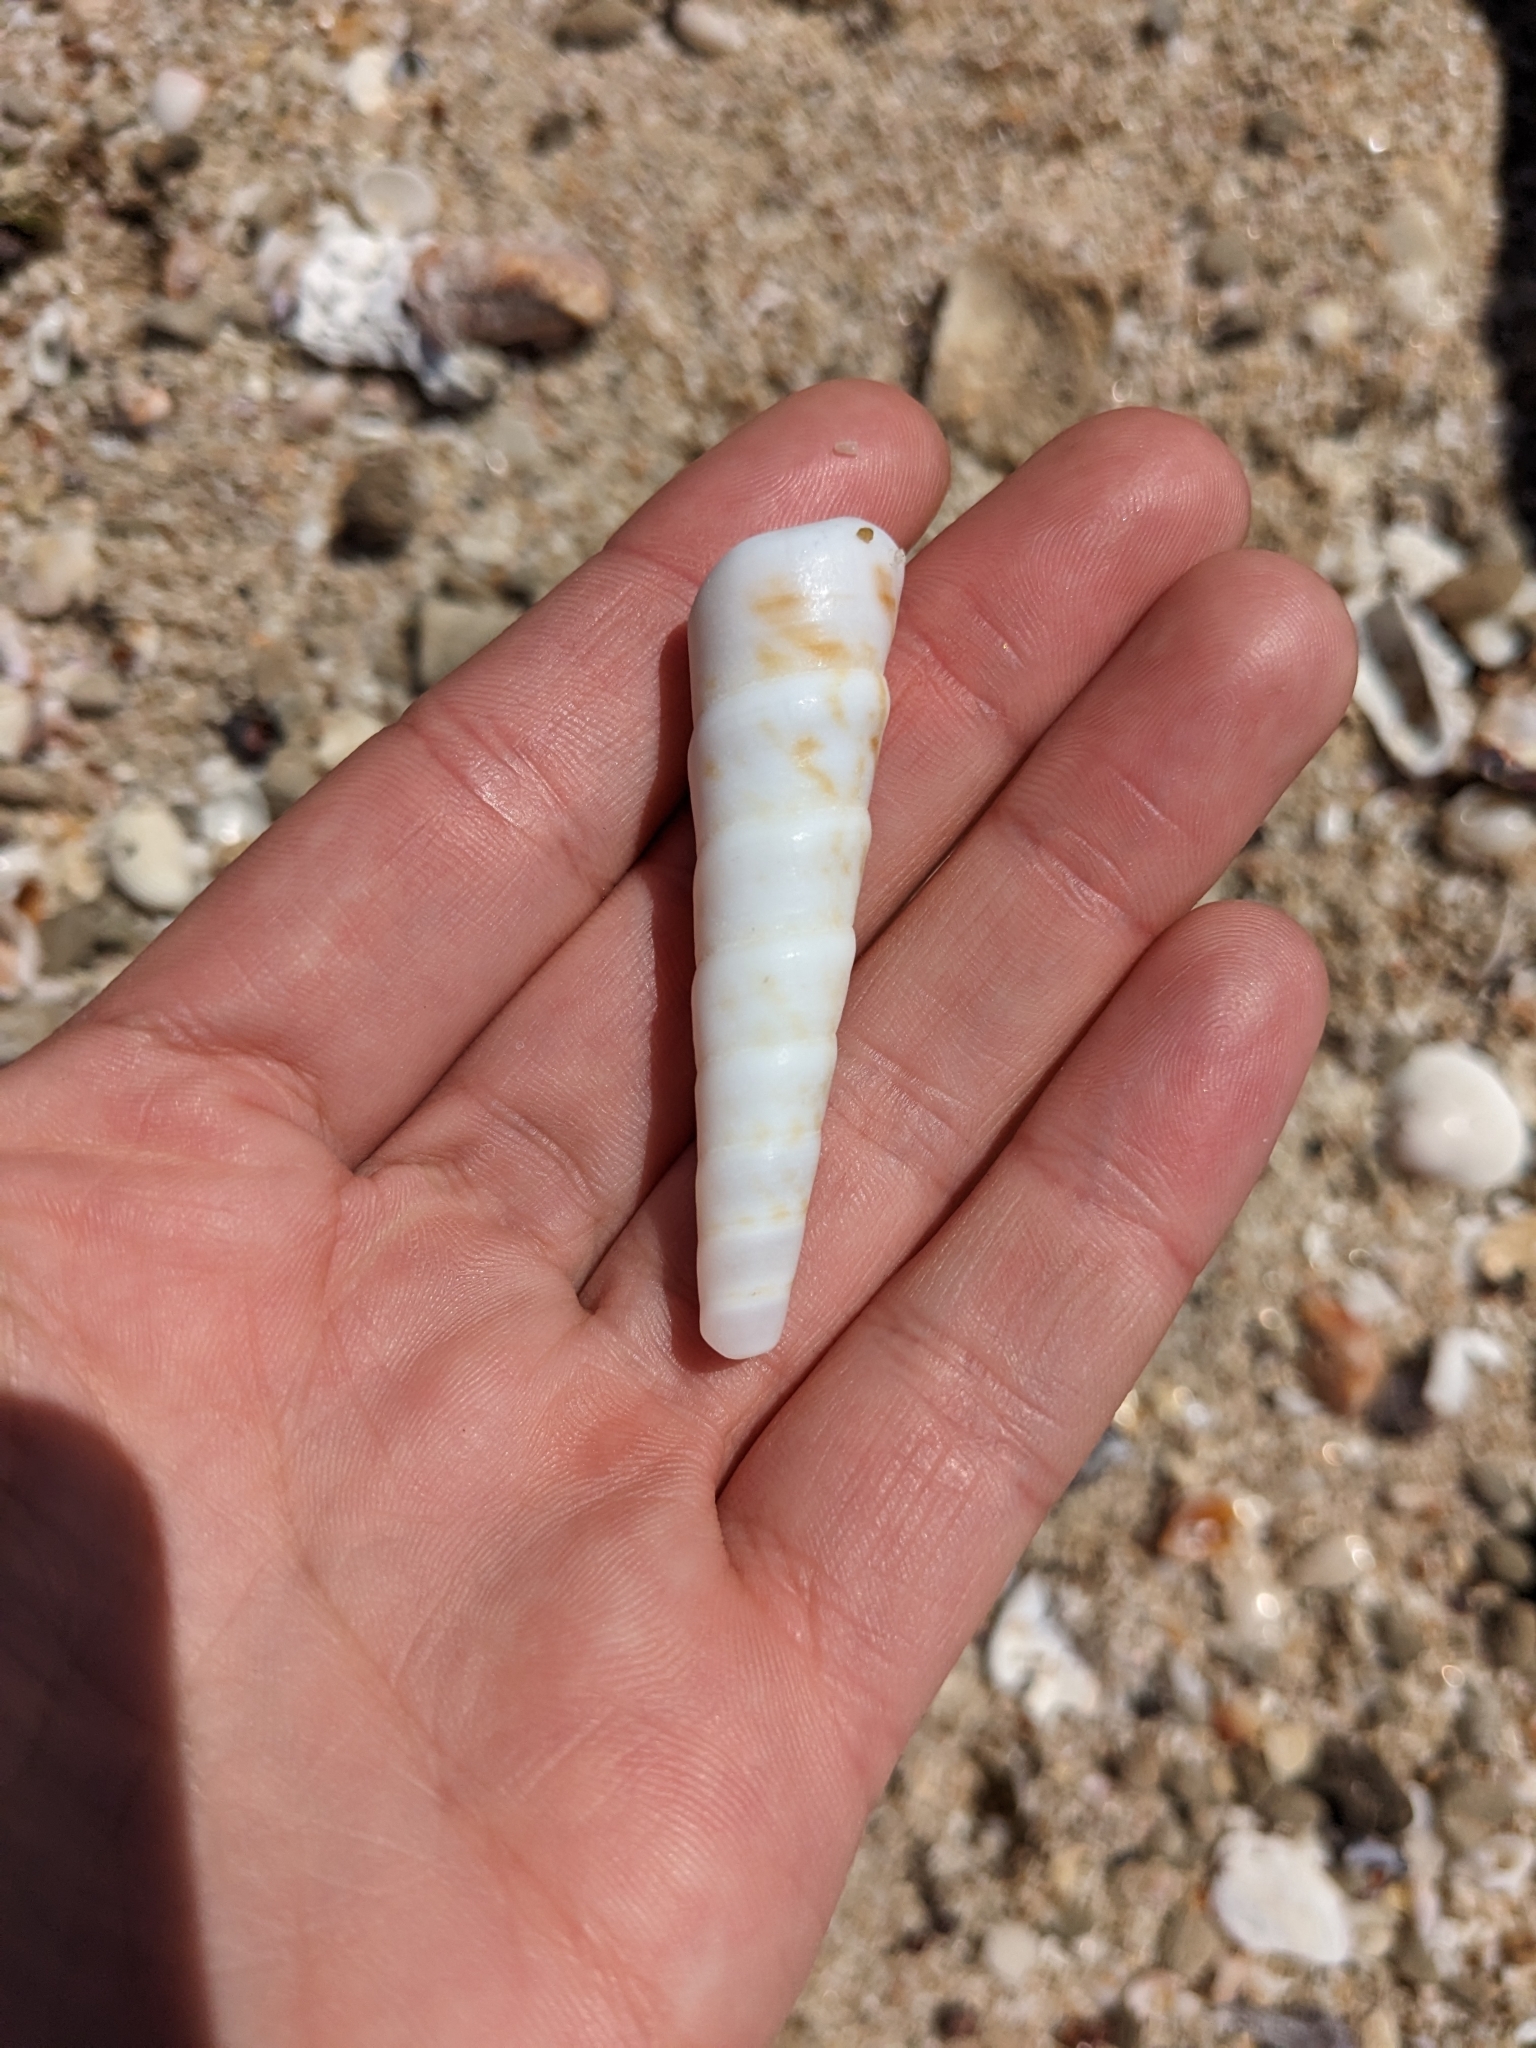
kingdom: Animalia
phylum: Mollusca
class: Gastropoda
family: Turritellidae
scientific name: Turritellidae
